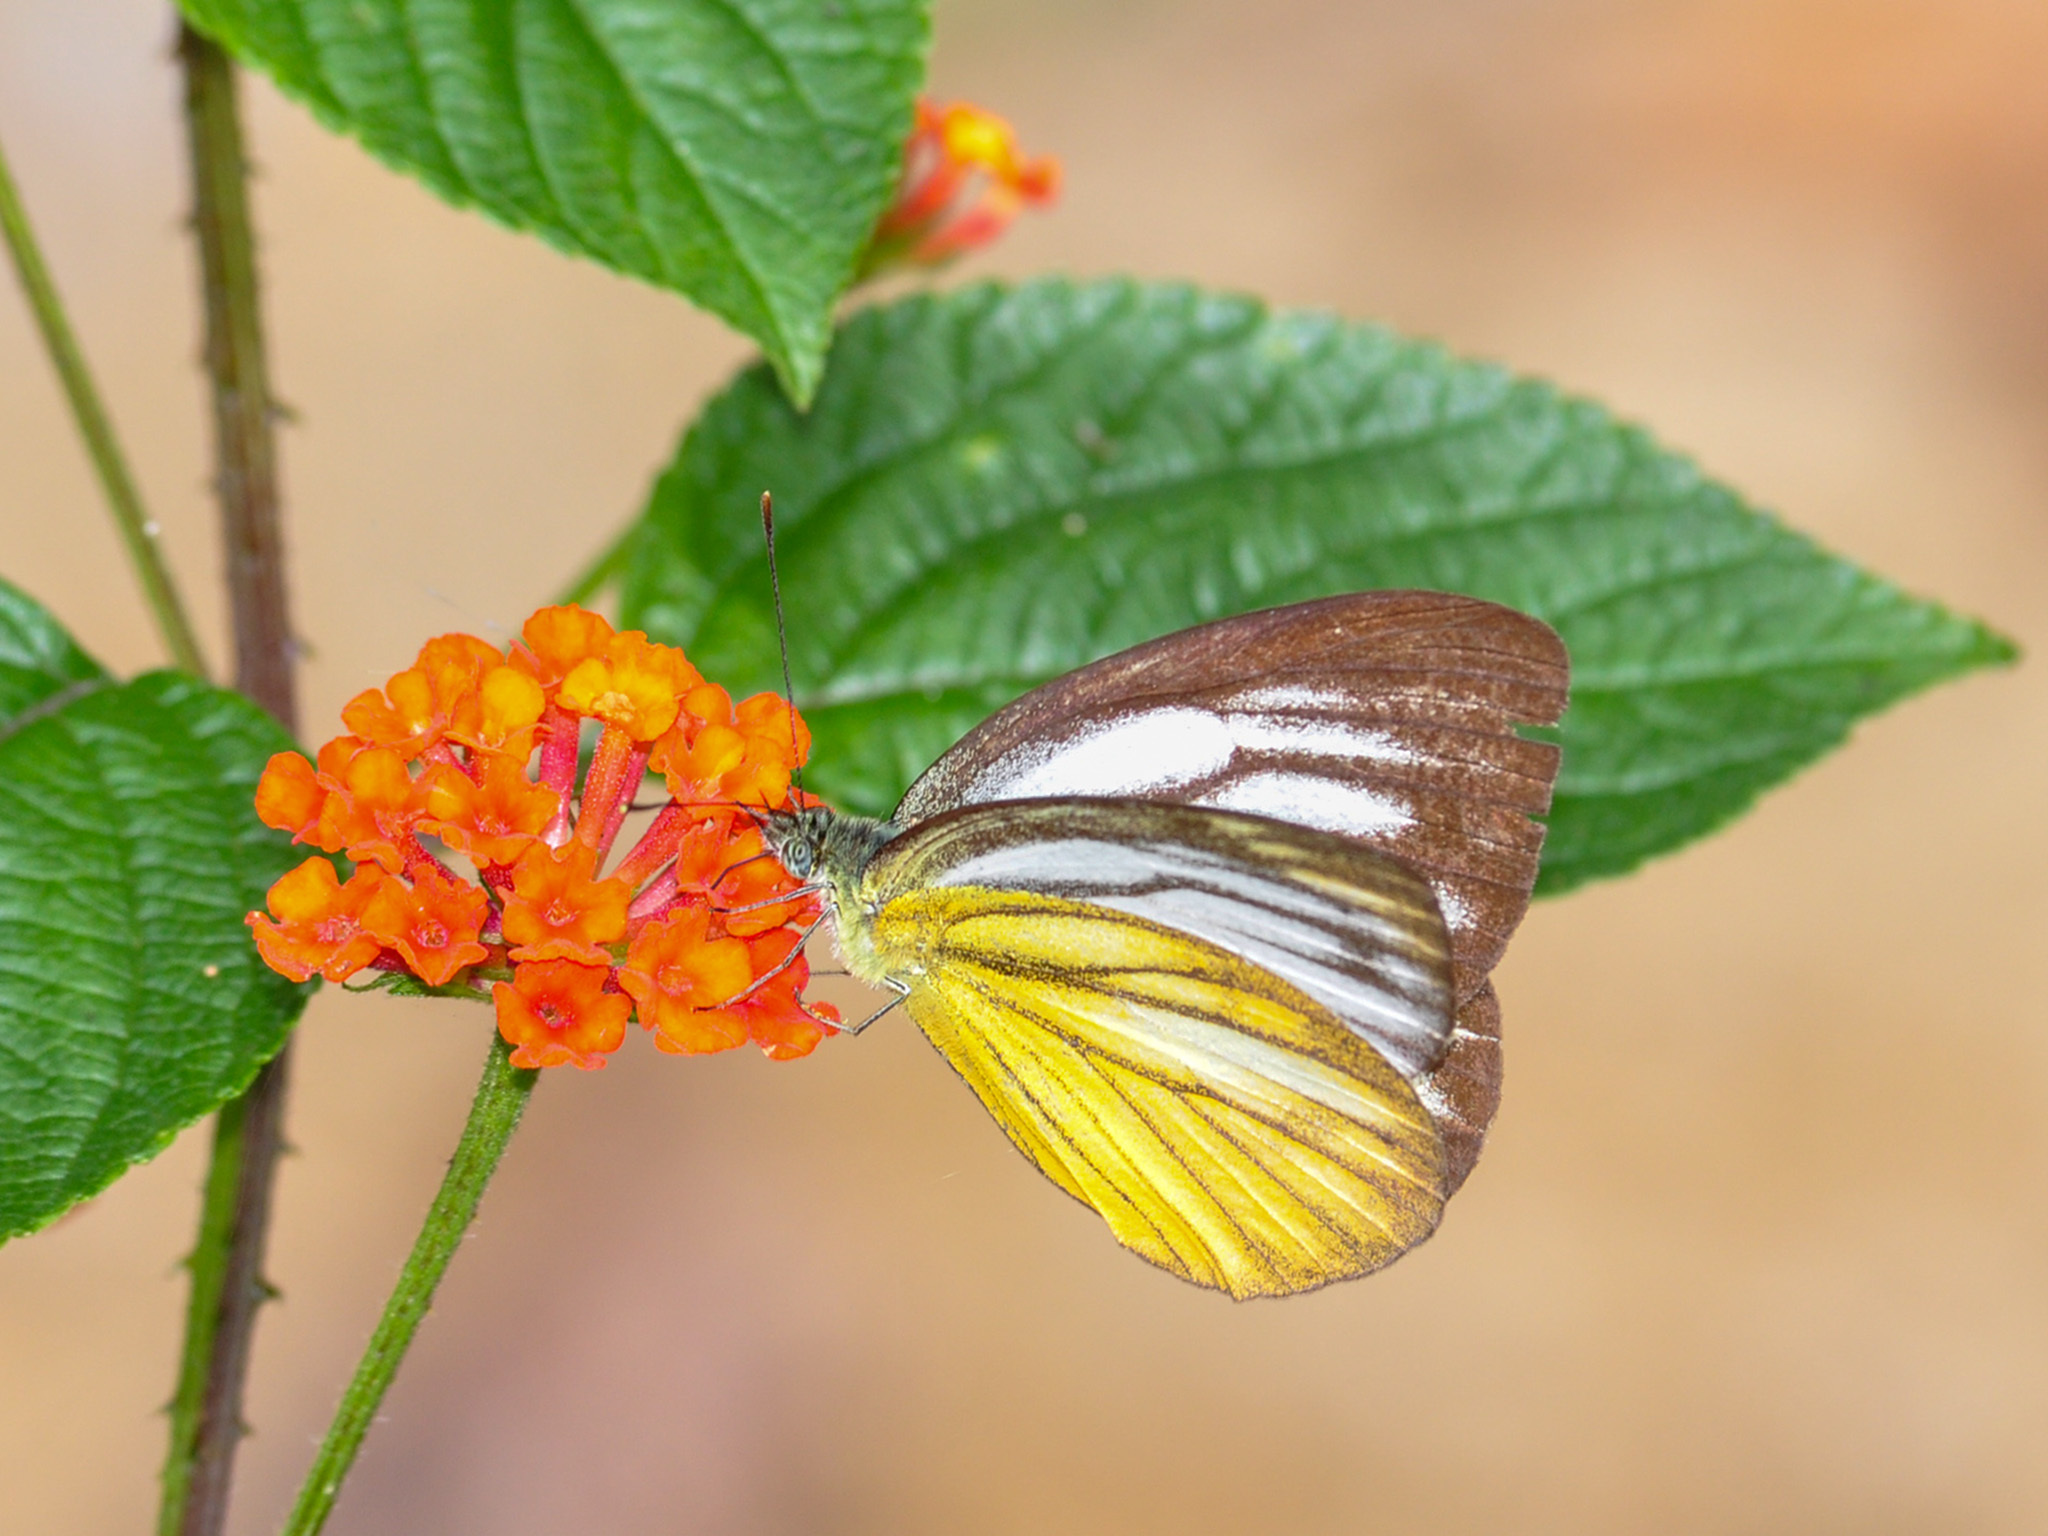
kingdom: Animalia
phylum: Arthropoda
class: Insecta
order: Lepidoptera
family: Pieridae
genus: Cepora
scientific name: Cepora nadina
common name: Lesser gull
